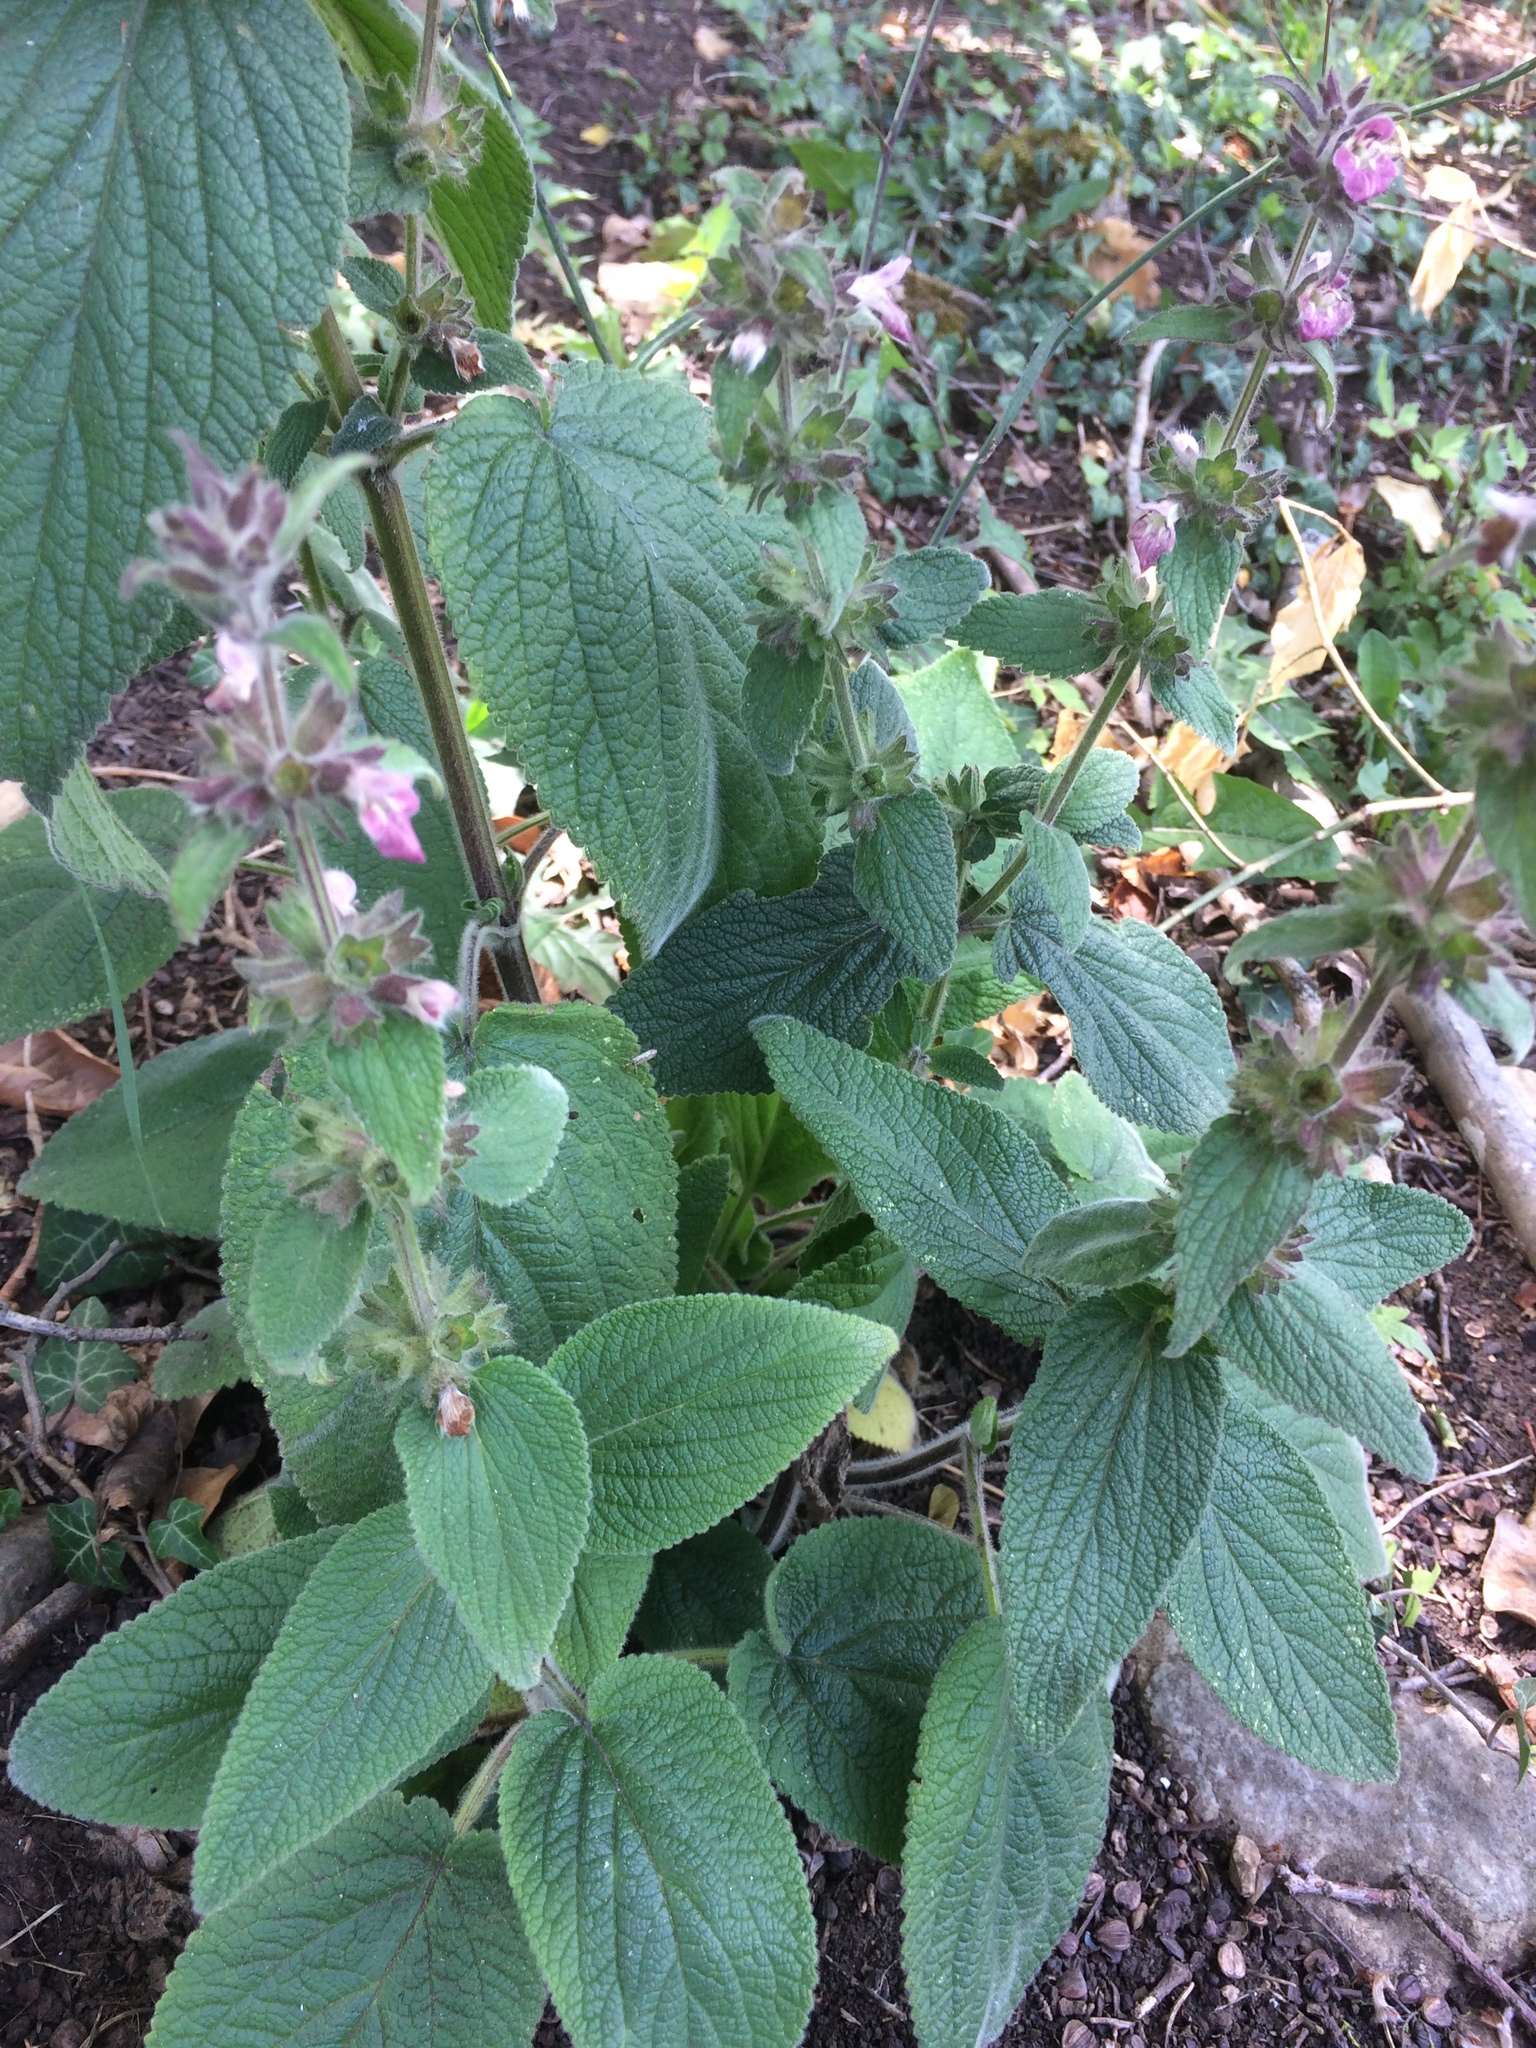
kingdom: Plantae
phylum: Tracheophyta
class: Magnoliopsida
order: Lamiales
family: Lamiaceae
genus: Stachys
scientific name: Stachys alpina
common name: Limestone woundwort
